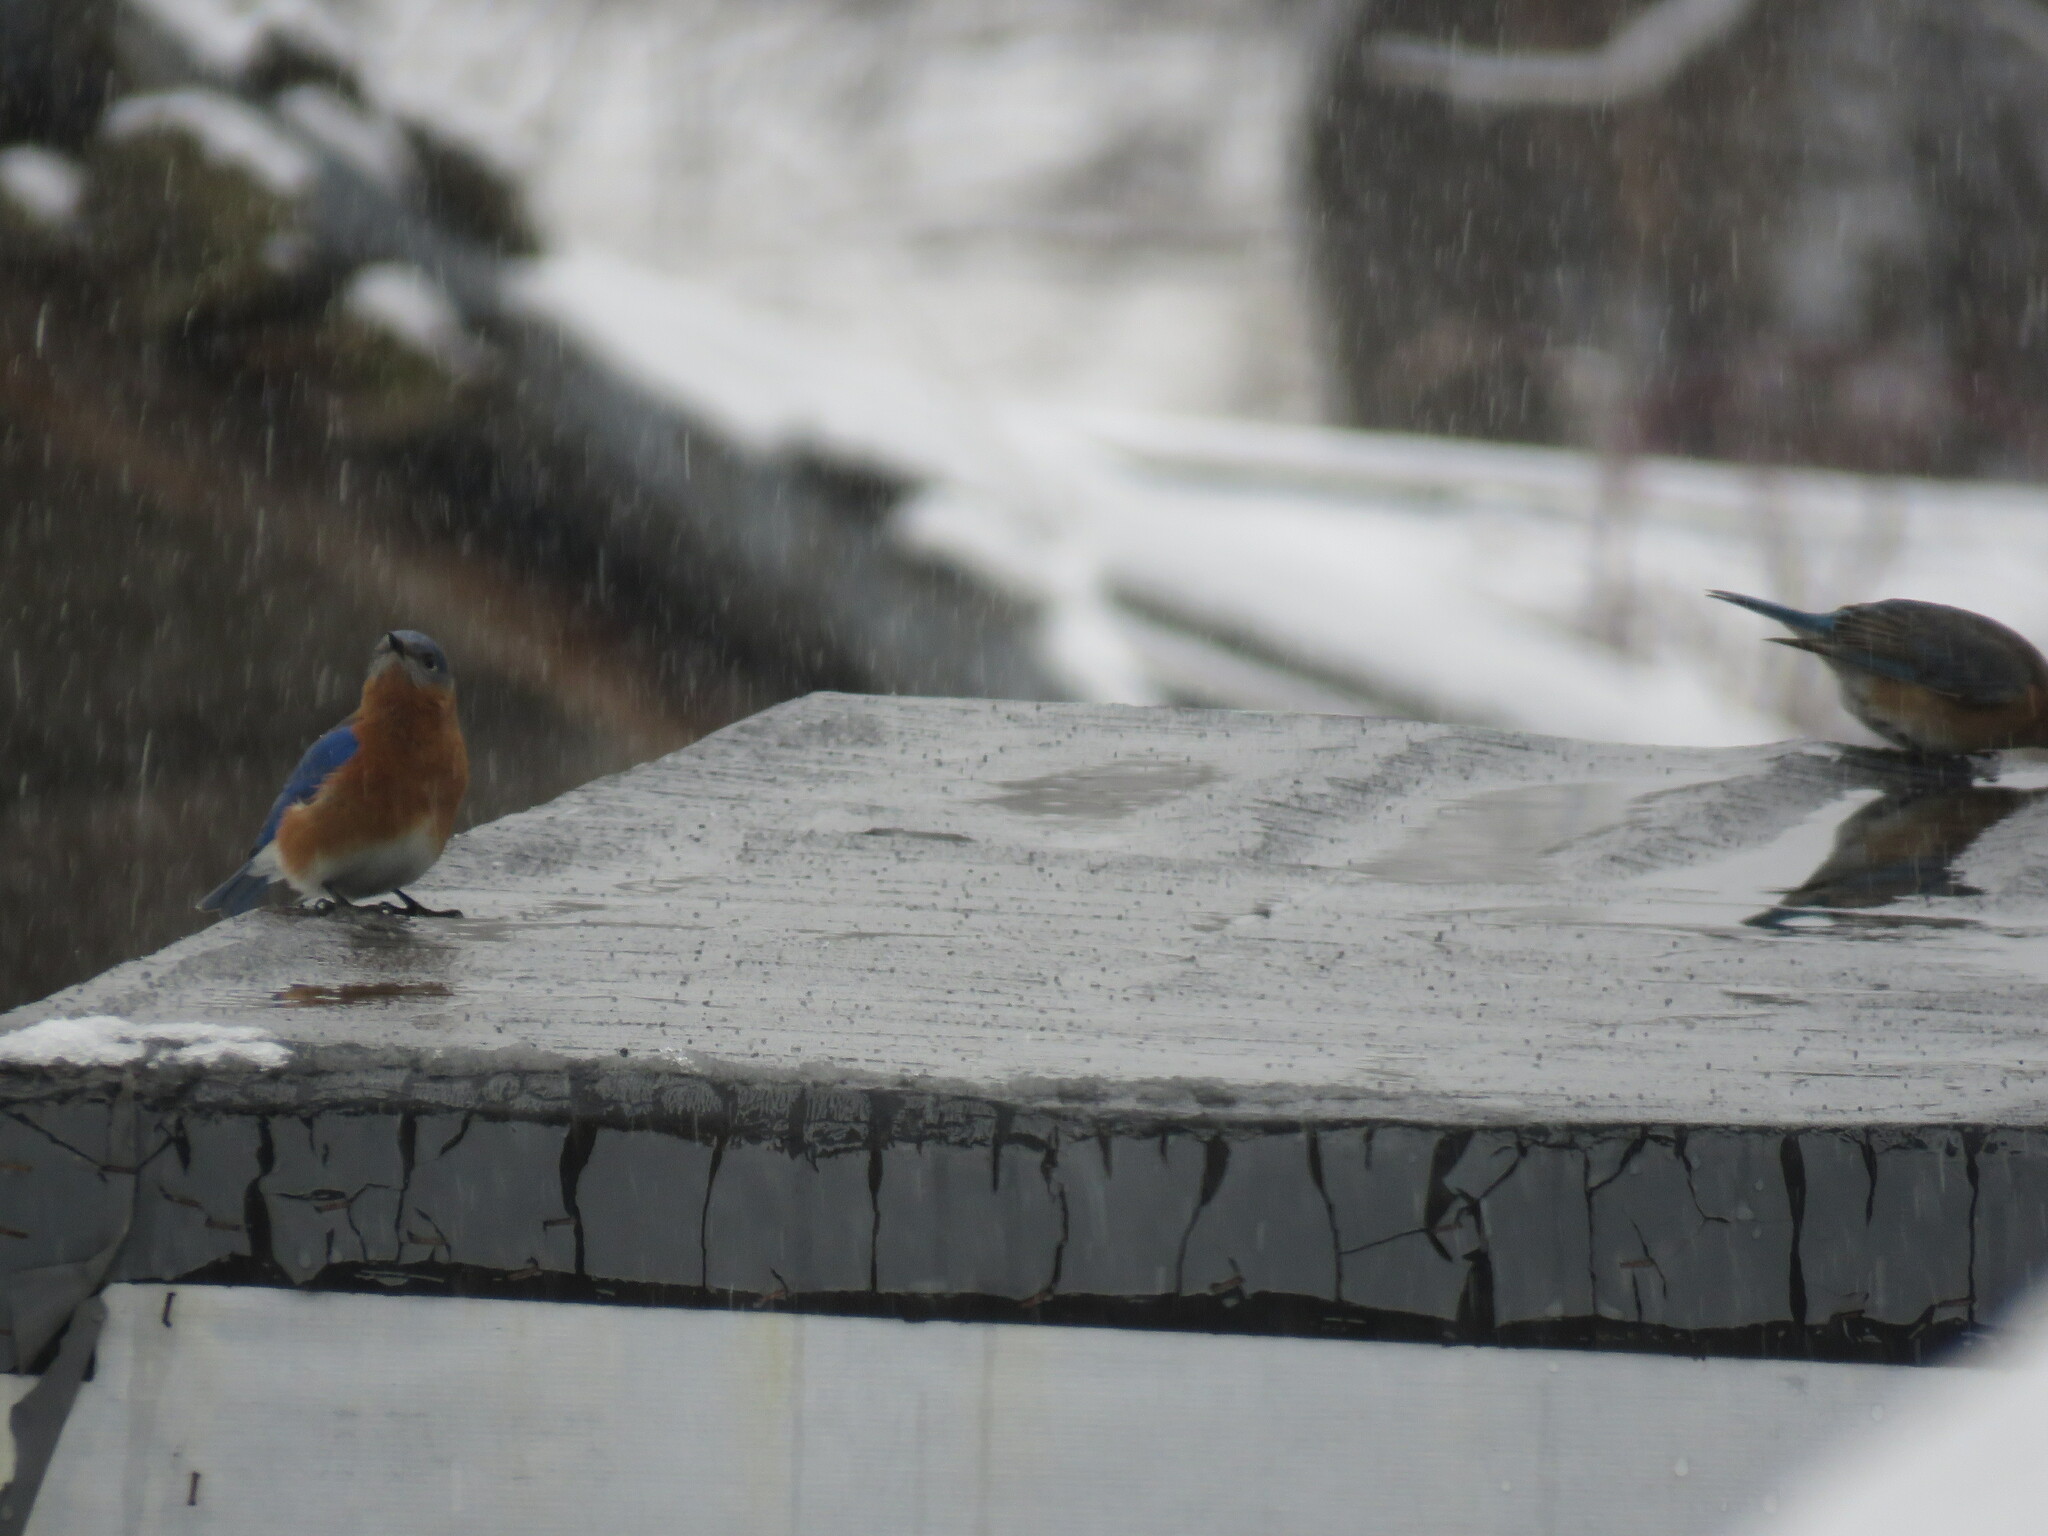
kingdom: Animalia
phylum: Chordata
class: Aves
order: Passeriformes
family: Turdidae
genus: Sialia
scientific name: Sialia sialis
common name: Eastern bluebird
